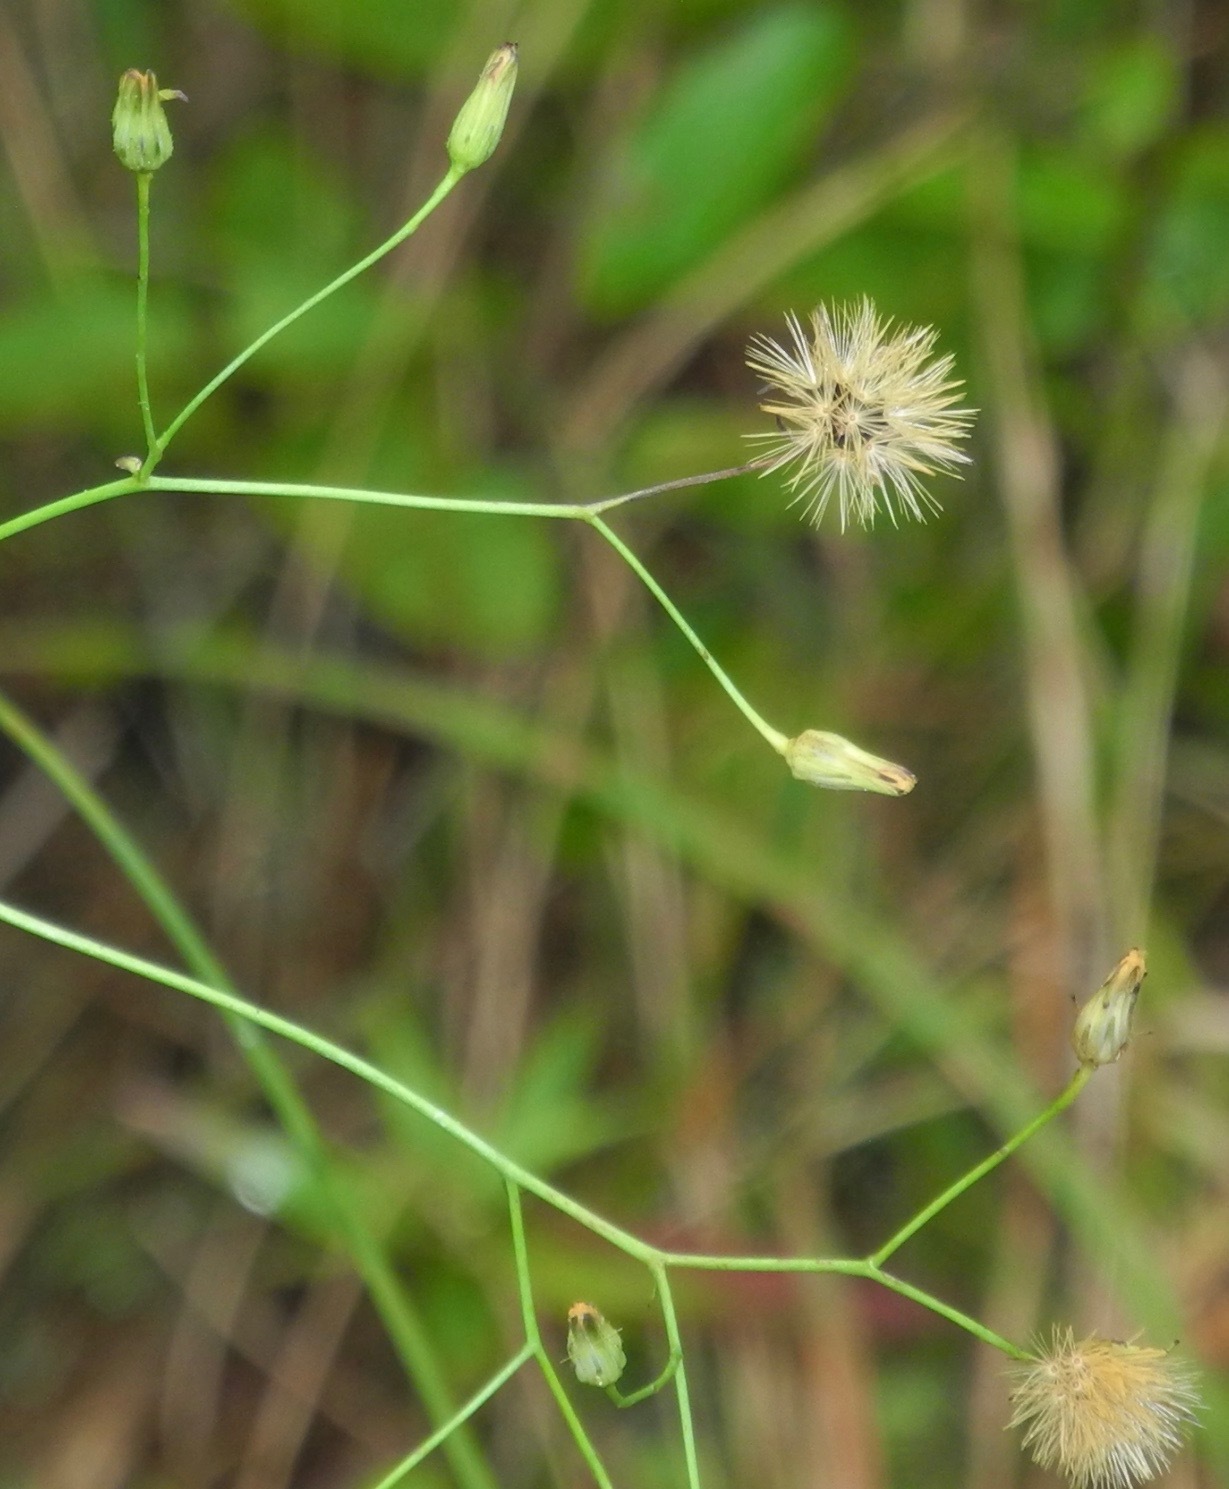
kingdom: Plantae
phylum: Tracheophyta
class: Magnoliopsida
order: Asterales
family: Asteraceae
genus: Hieracium
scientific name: Hieracium paniculatum
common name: Allegheny hawkweed
